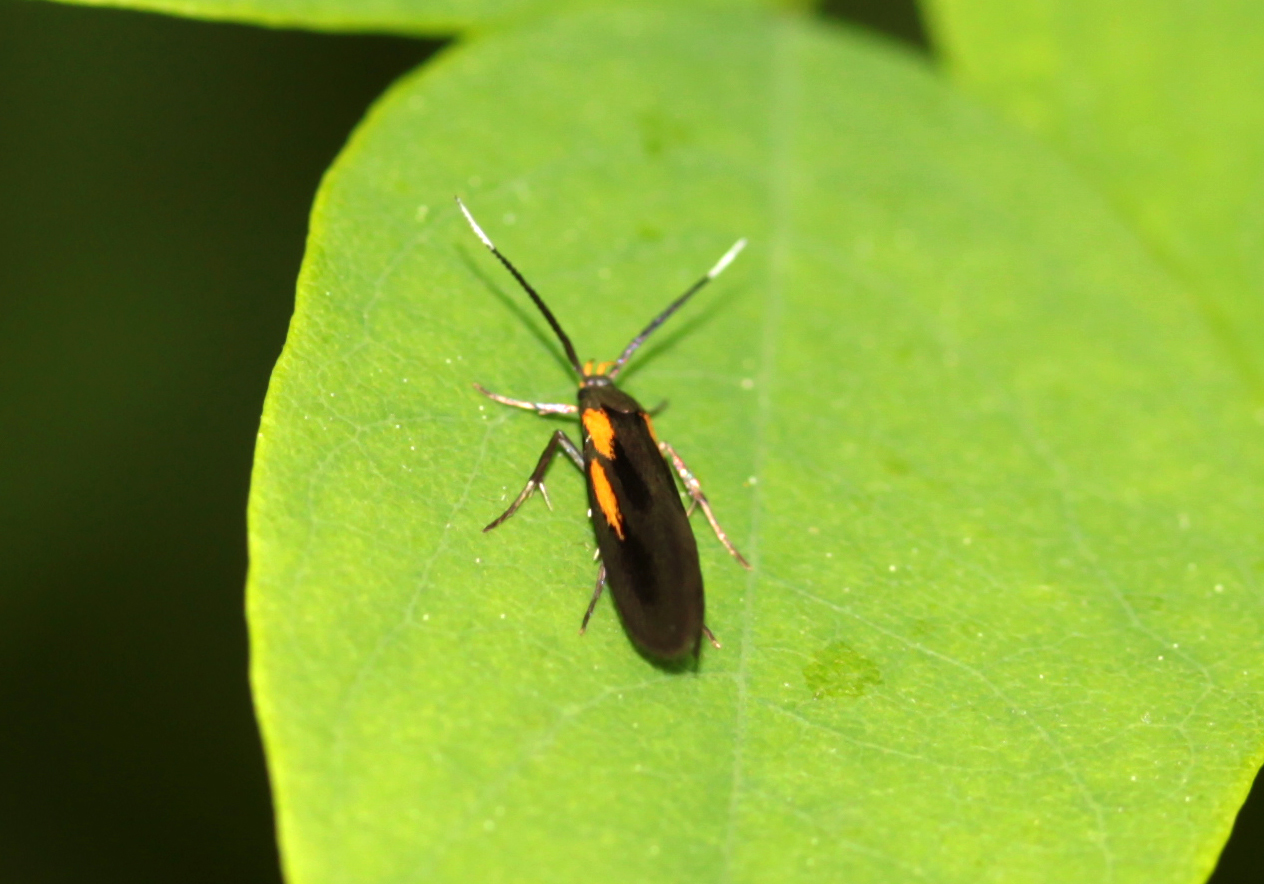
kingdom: Animalia
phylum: Arthropoda
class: Insecta
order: Lepidoptera
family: Oecophoridae
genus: Mathildana
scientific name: Mathildana newmanella
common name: Newman's mathildana moth
